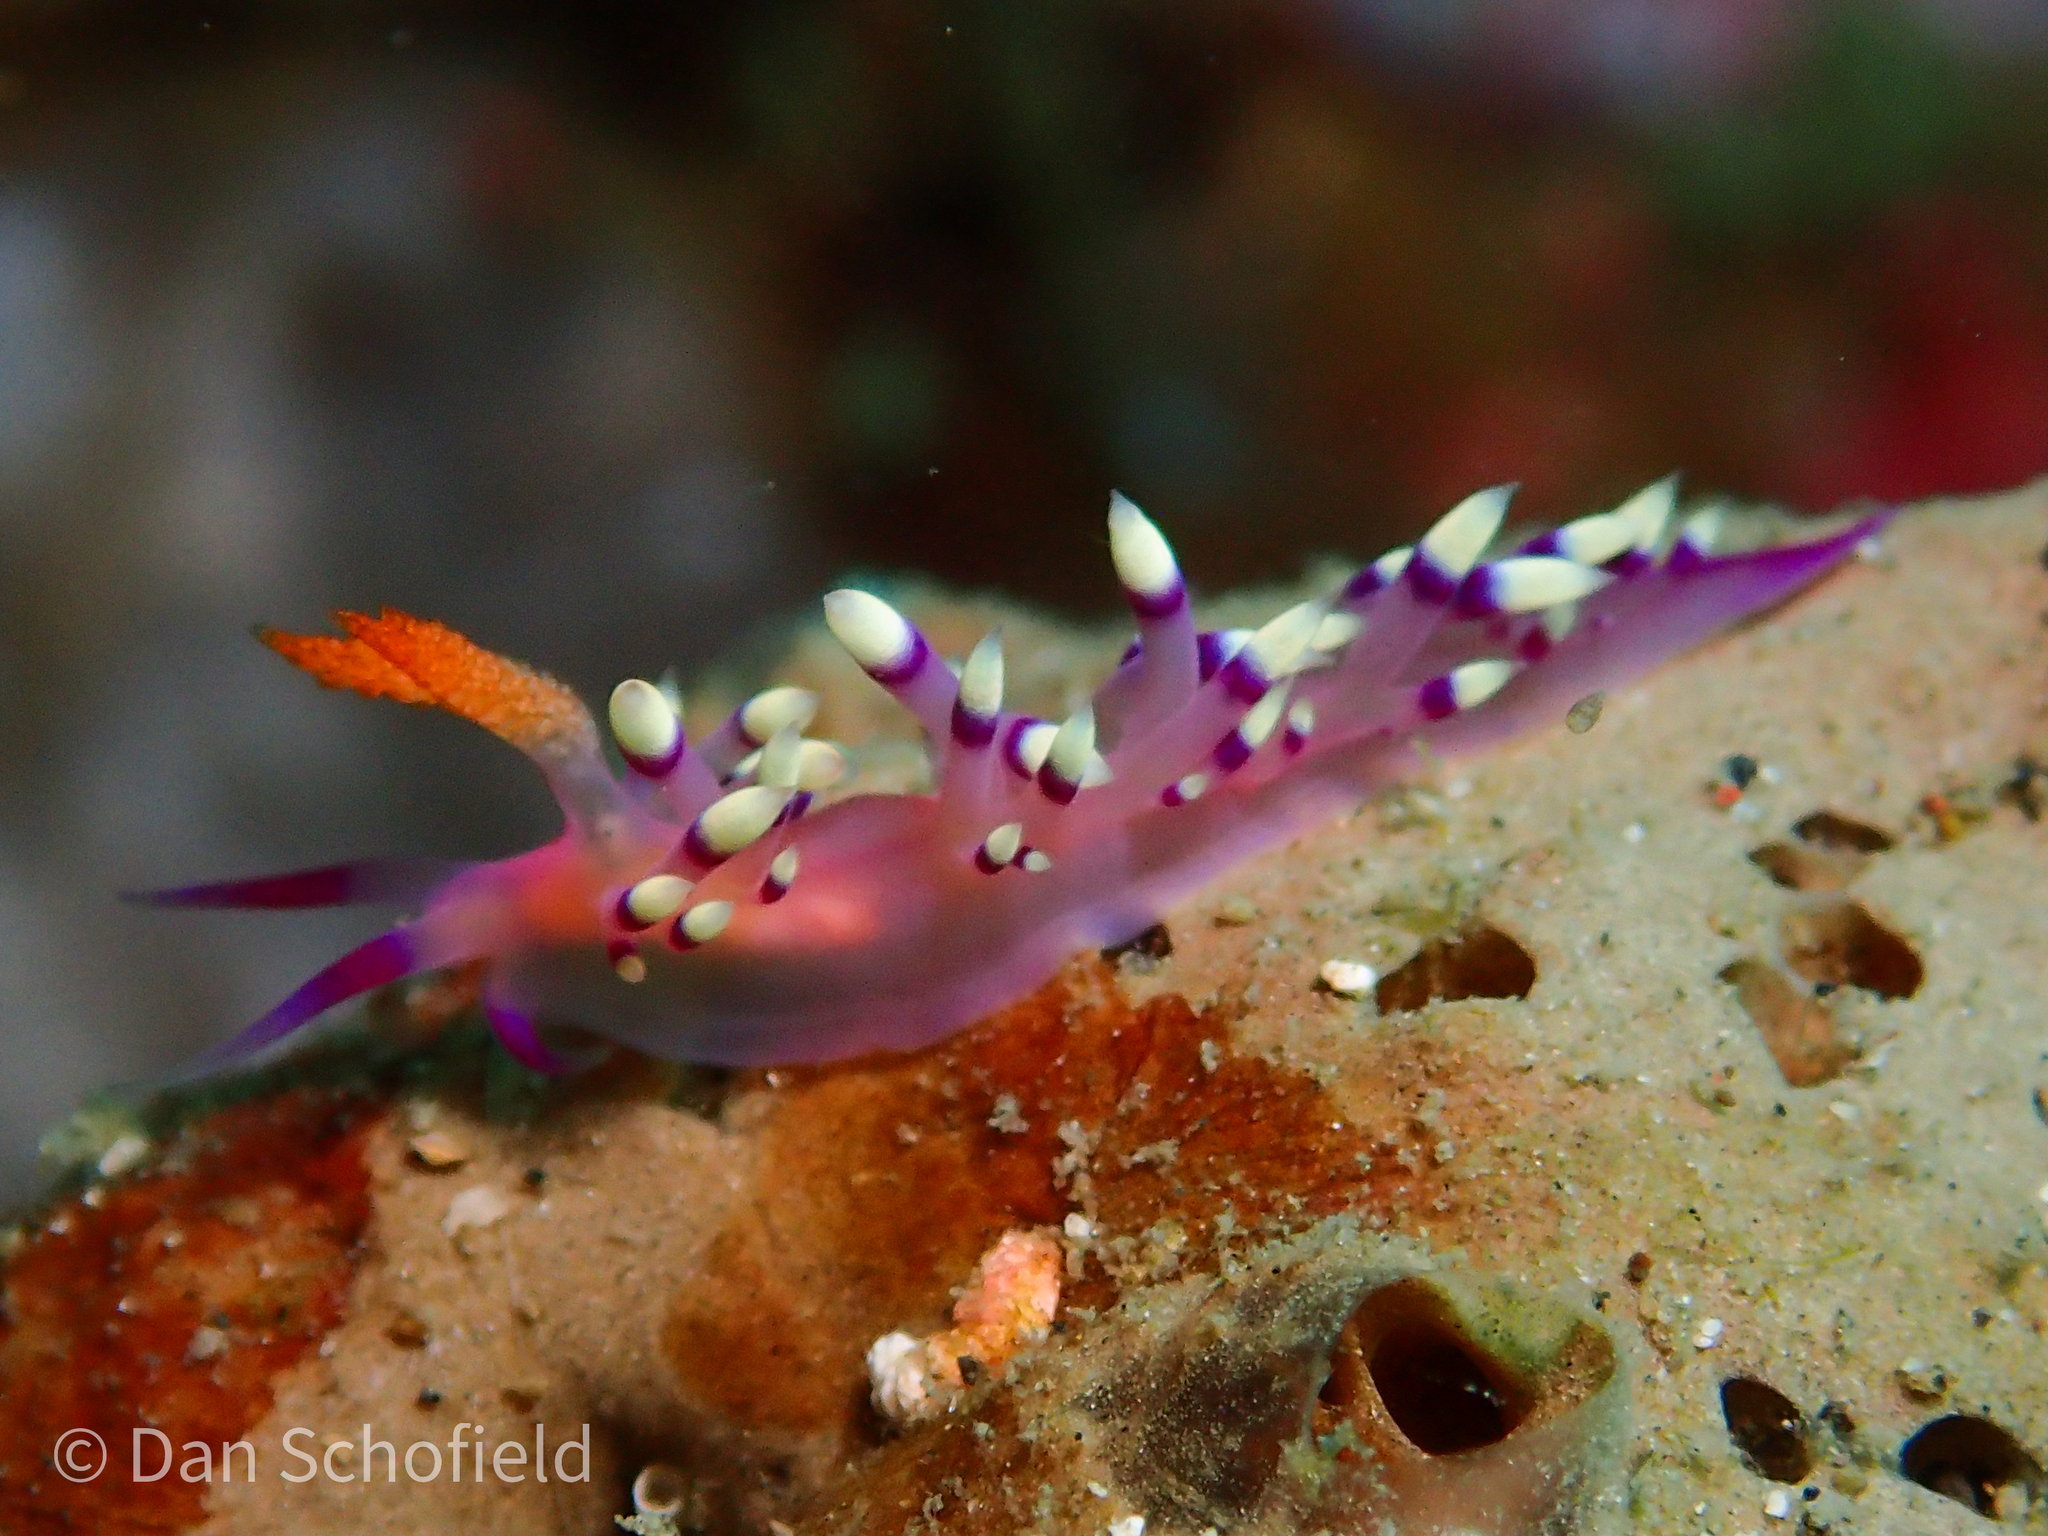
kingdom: Animalia
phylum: Mollusca
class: Gastropoda
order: Nudibranchia
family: Flabellinidae
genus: Coryphellina
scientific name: Coryphellina exoptata
